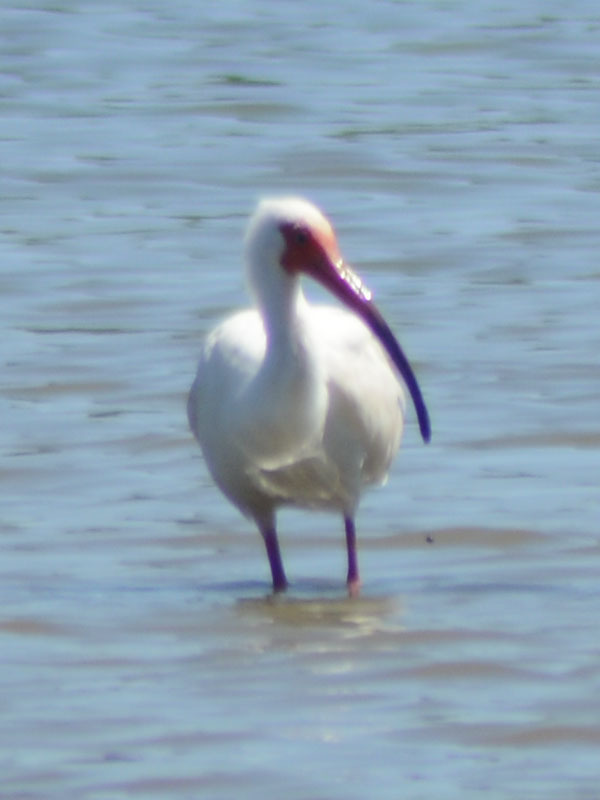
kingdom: Animalia
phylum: Chordata
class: Aves
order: Pelecaniformes
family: Threskiornithidae
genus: Eudocimus
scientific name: Eudocimus albus
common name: White ibis
